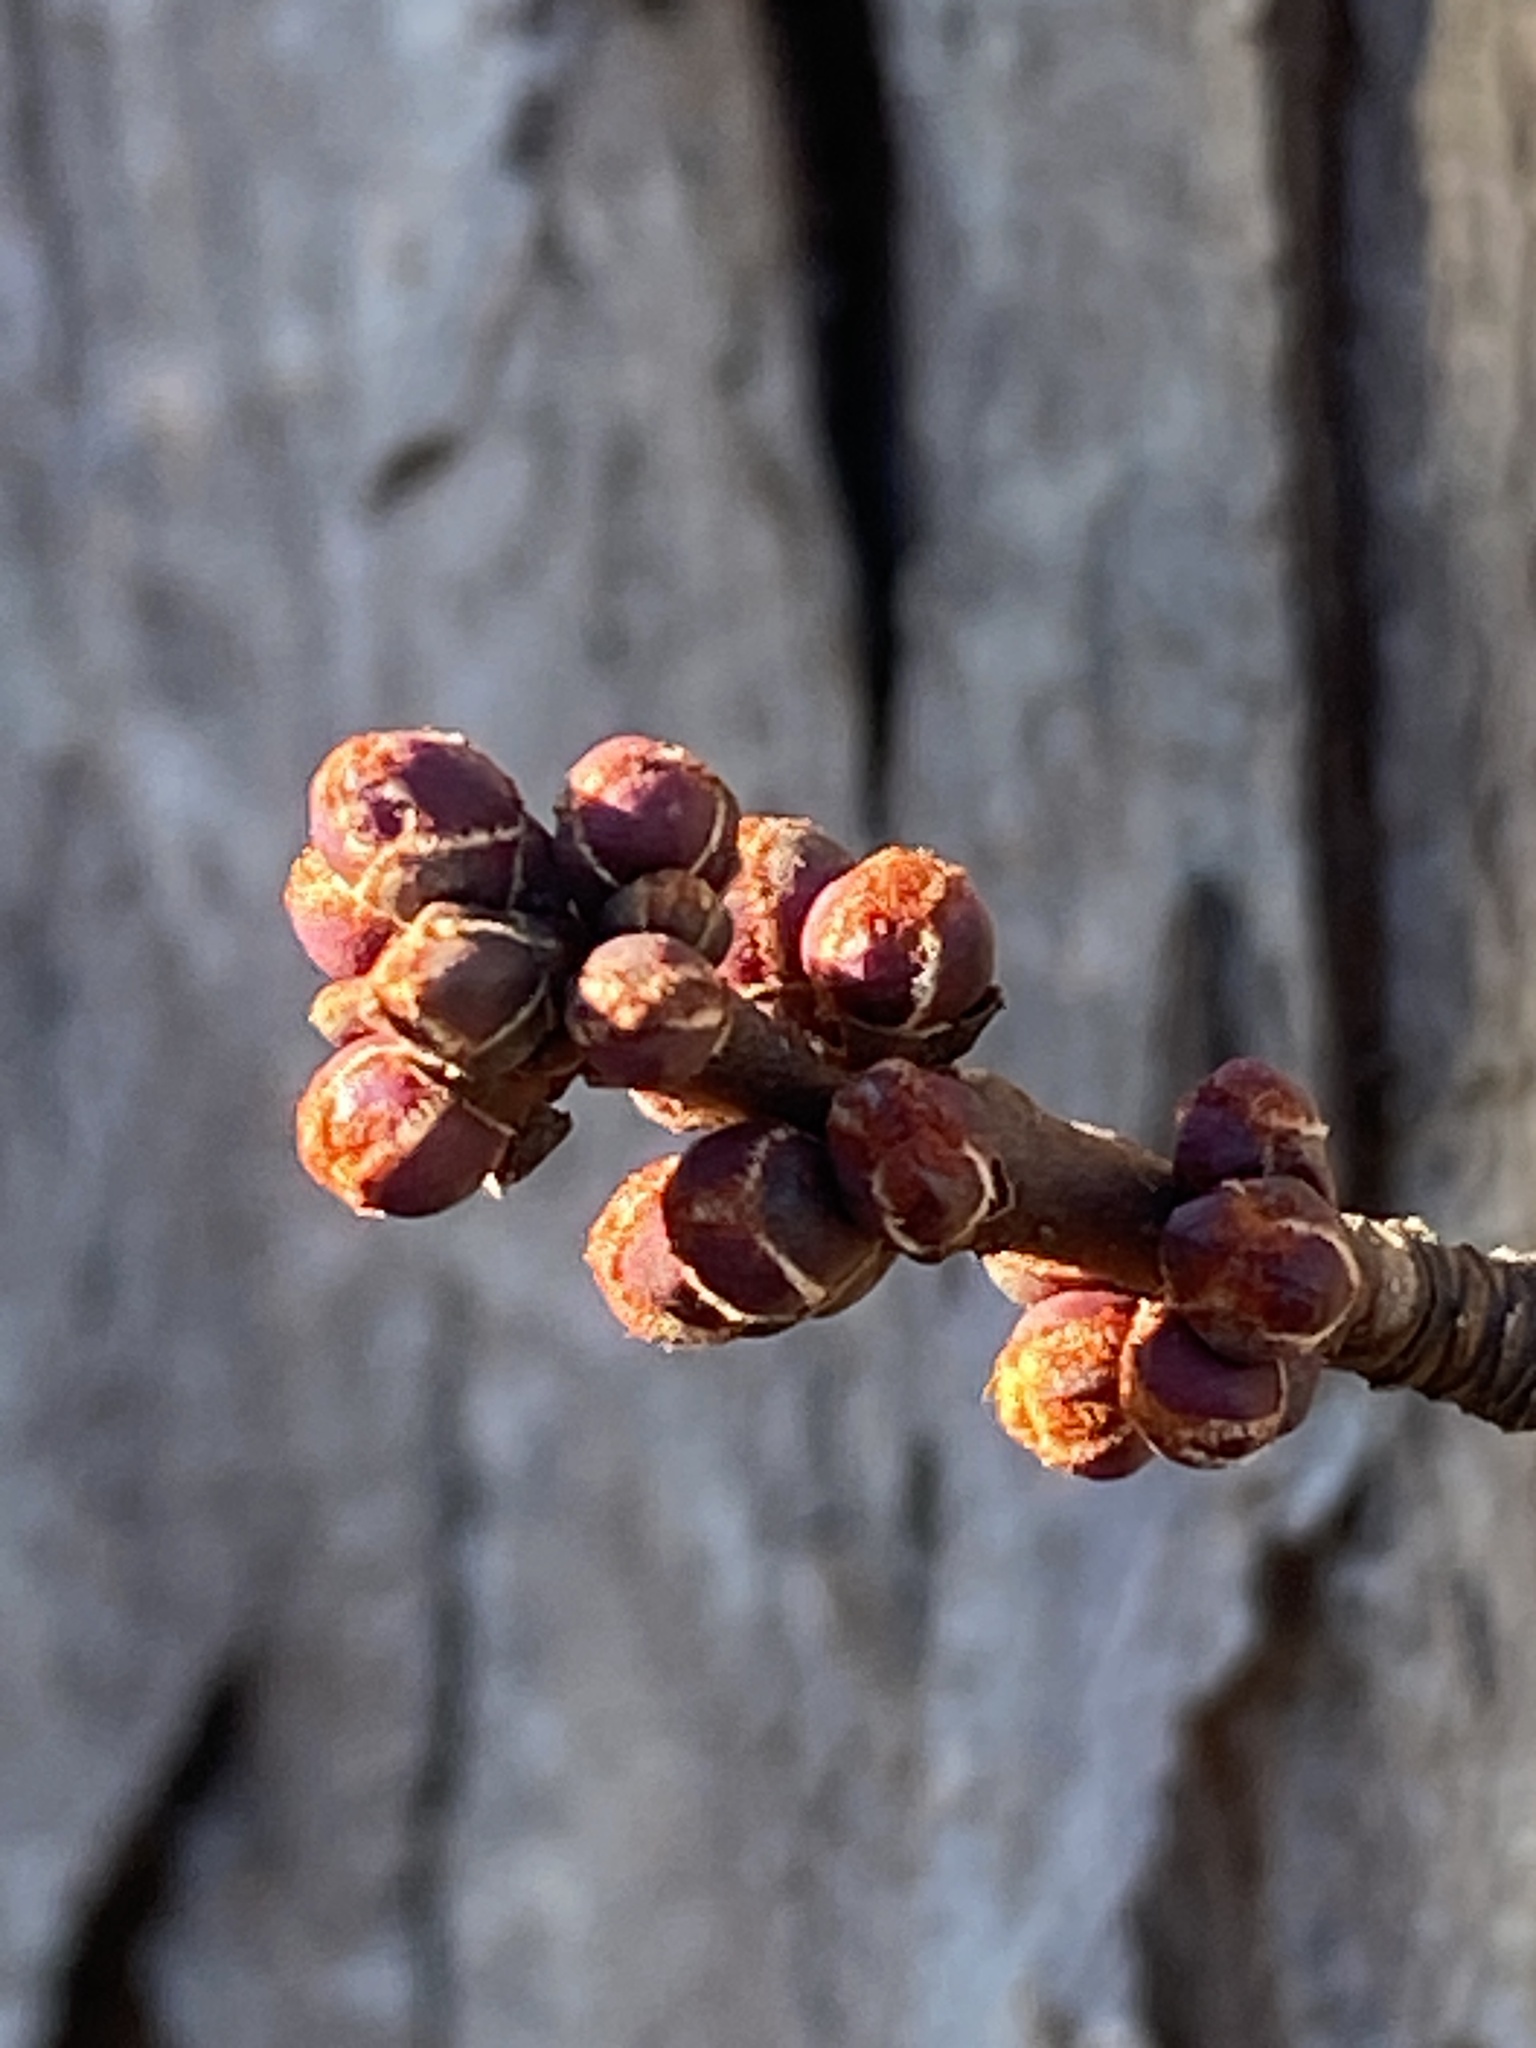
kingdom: Plantae
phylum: Tracheophyta
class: Magnoliopsida
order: Sapindales
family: Sapindaceae
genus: Acer
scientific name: Acer saccharinum
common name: Silver maple
